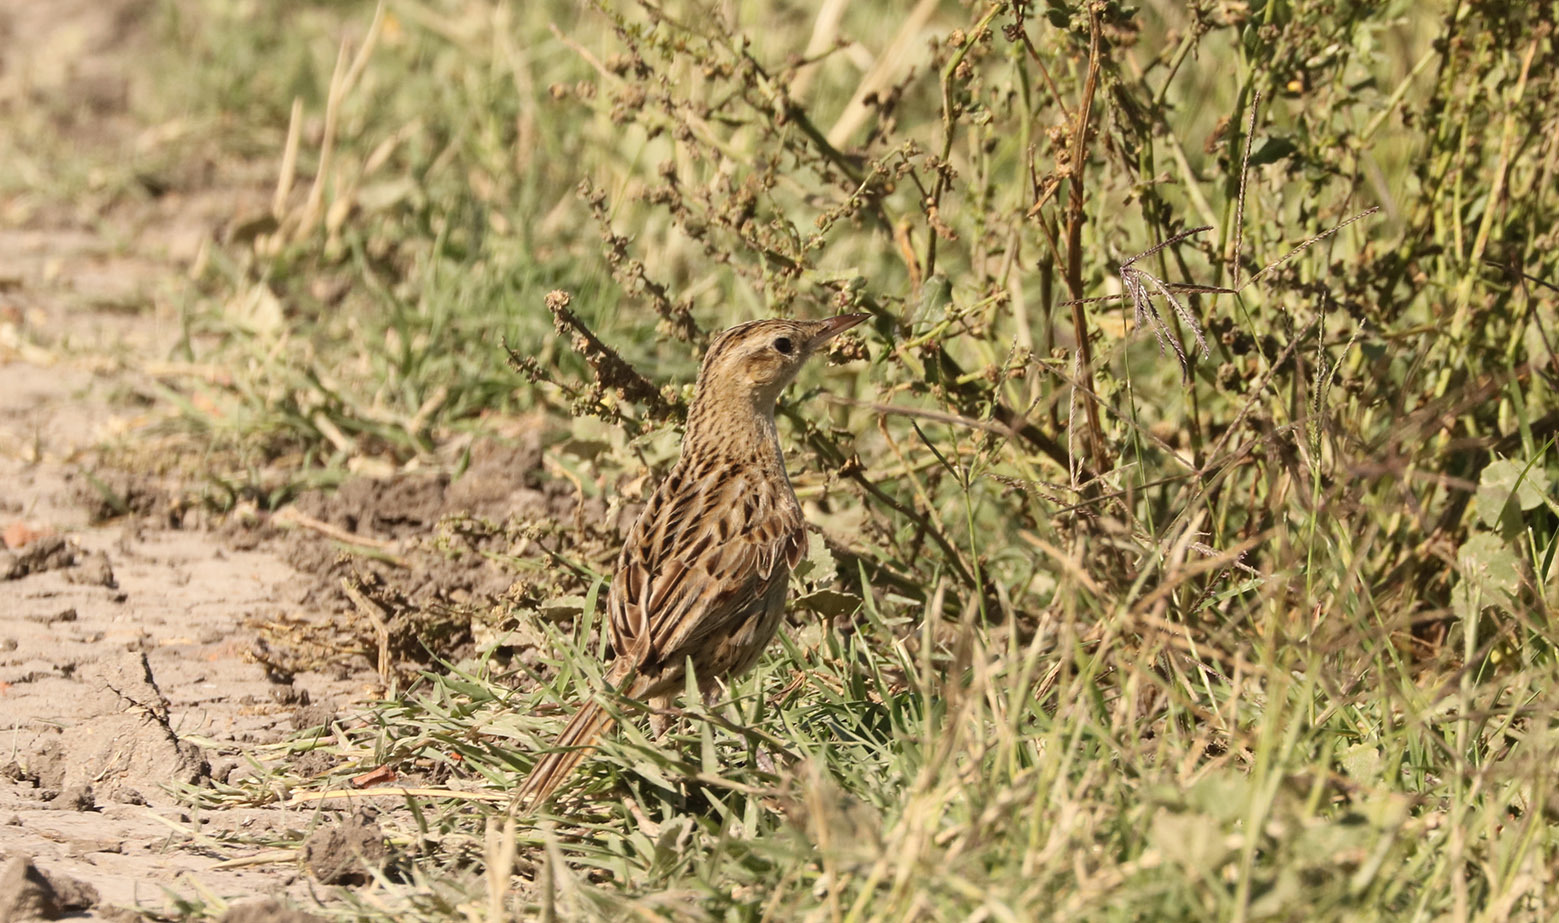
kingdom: Animalia
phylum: Chordata
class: Aves
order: Passeriformes
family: Furnariidae
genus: Asthenes
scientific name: Asthenes hudsoni
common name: Hudson's canastero
